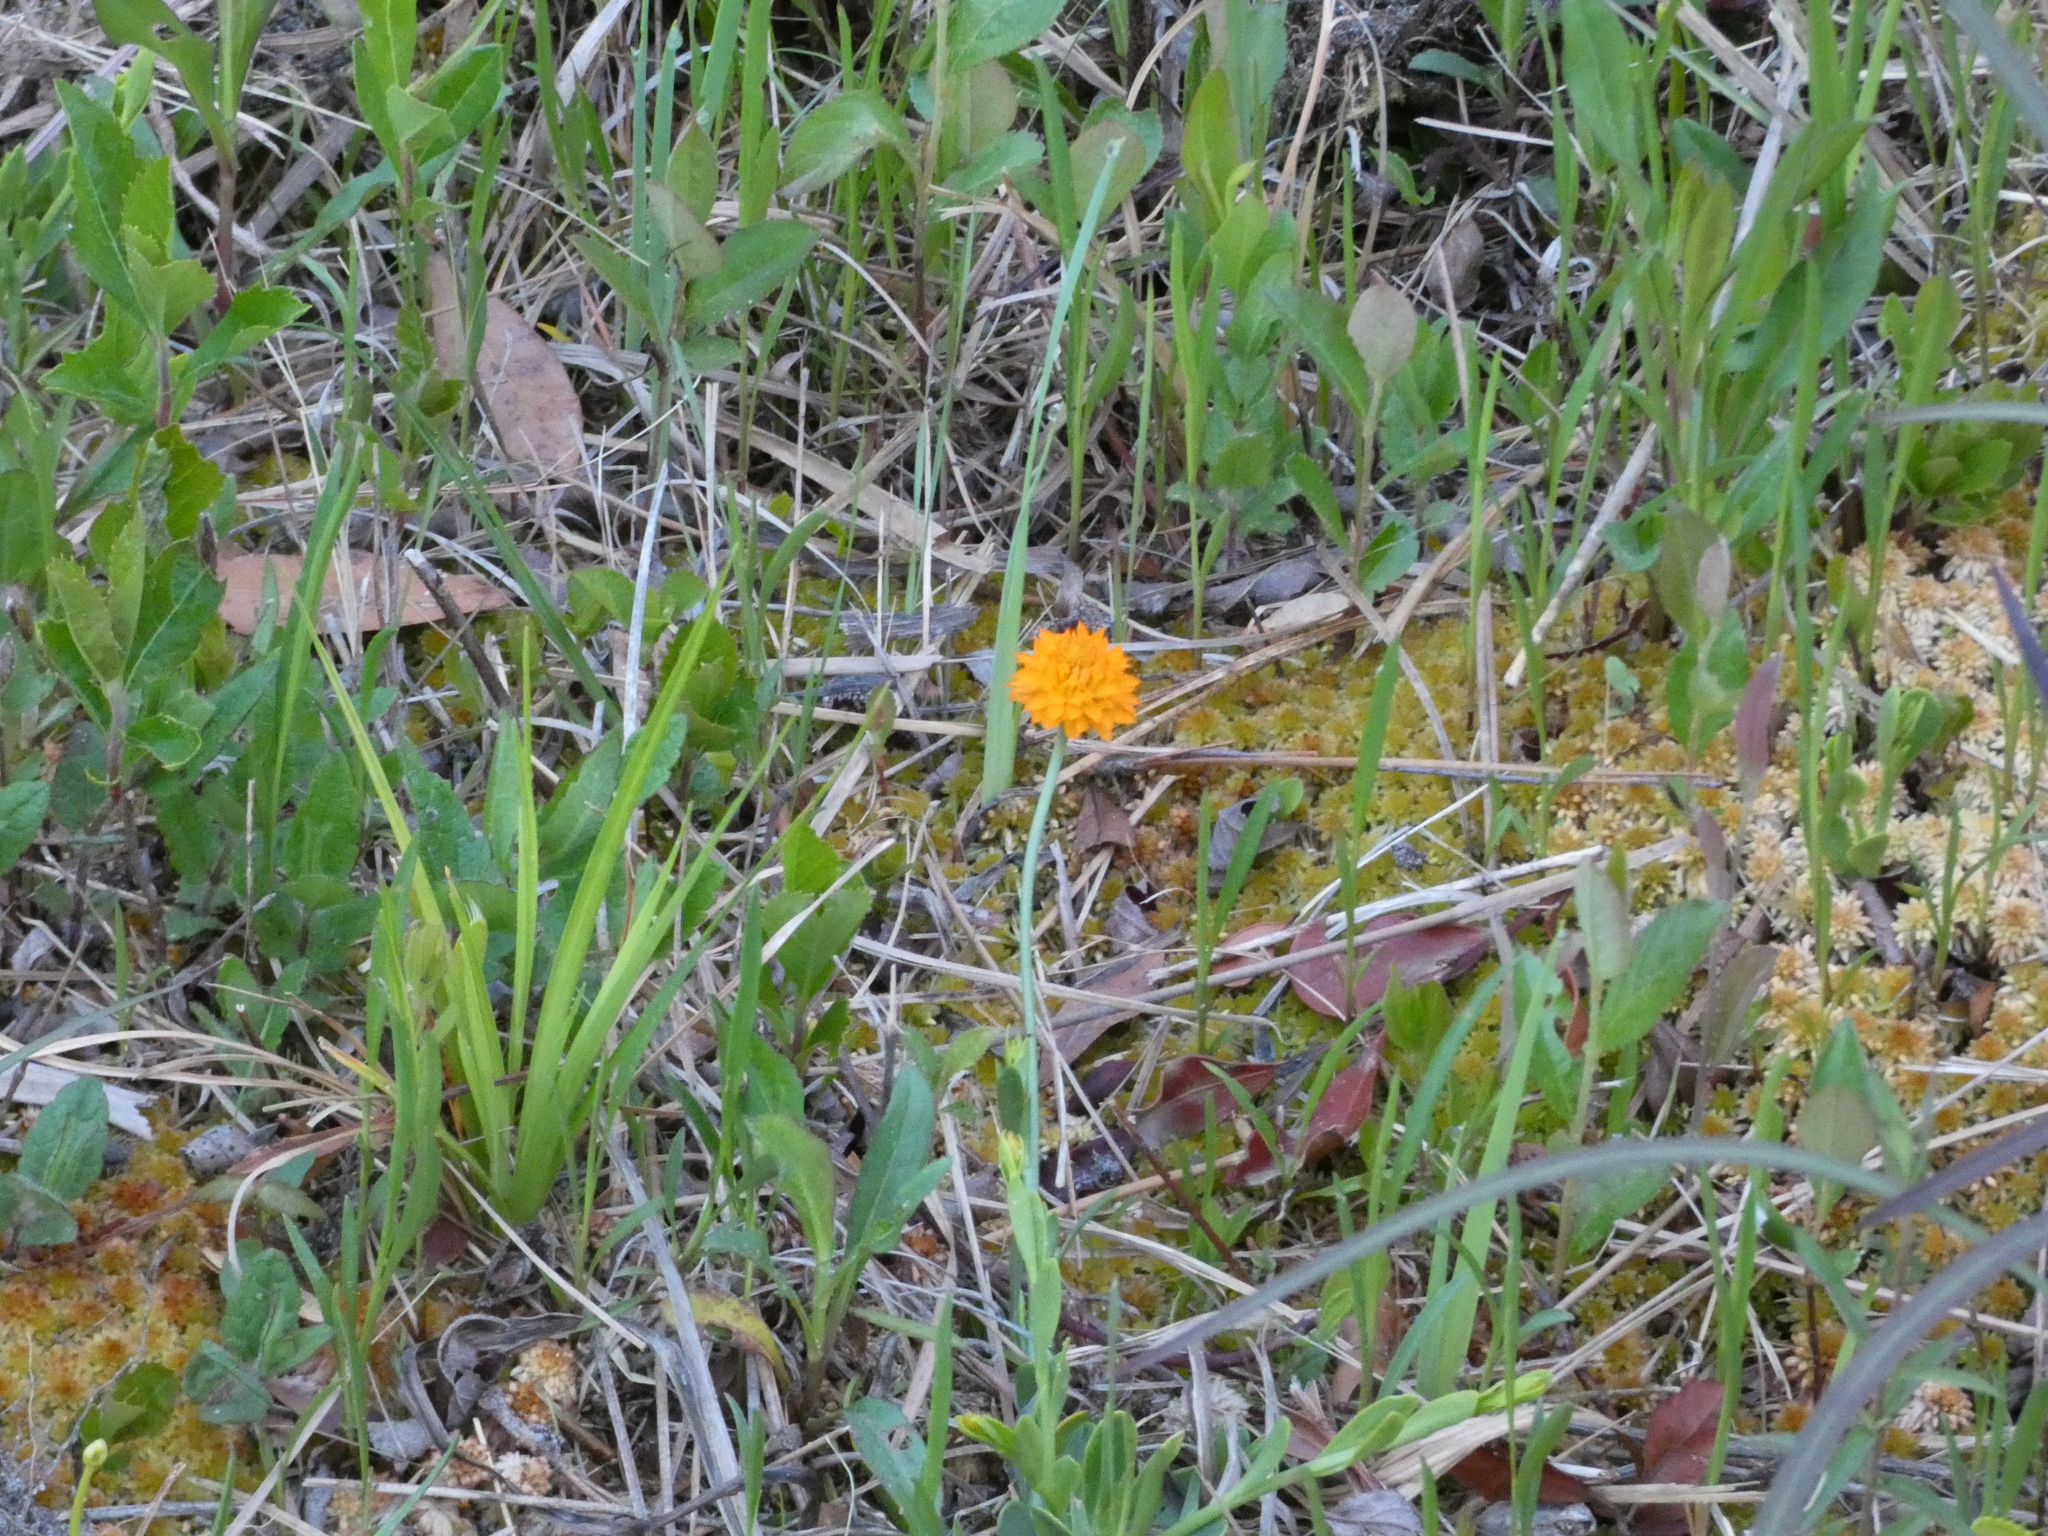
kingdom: Plantae
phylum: Tracheophyta
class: Magnoliopsida
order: Fabales
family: Polygalaceae
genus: Polygala
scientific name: Polygala lutea
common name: Orange milkwort
